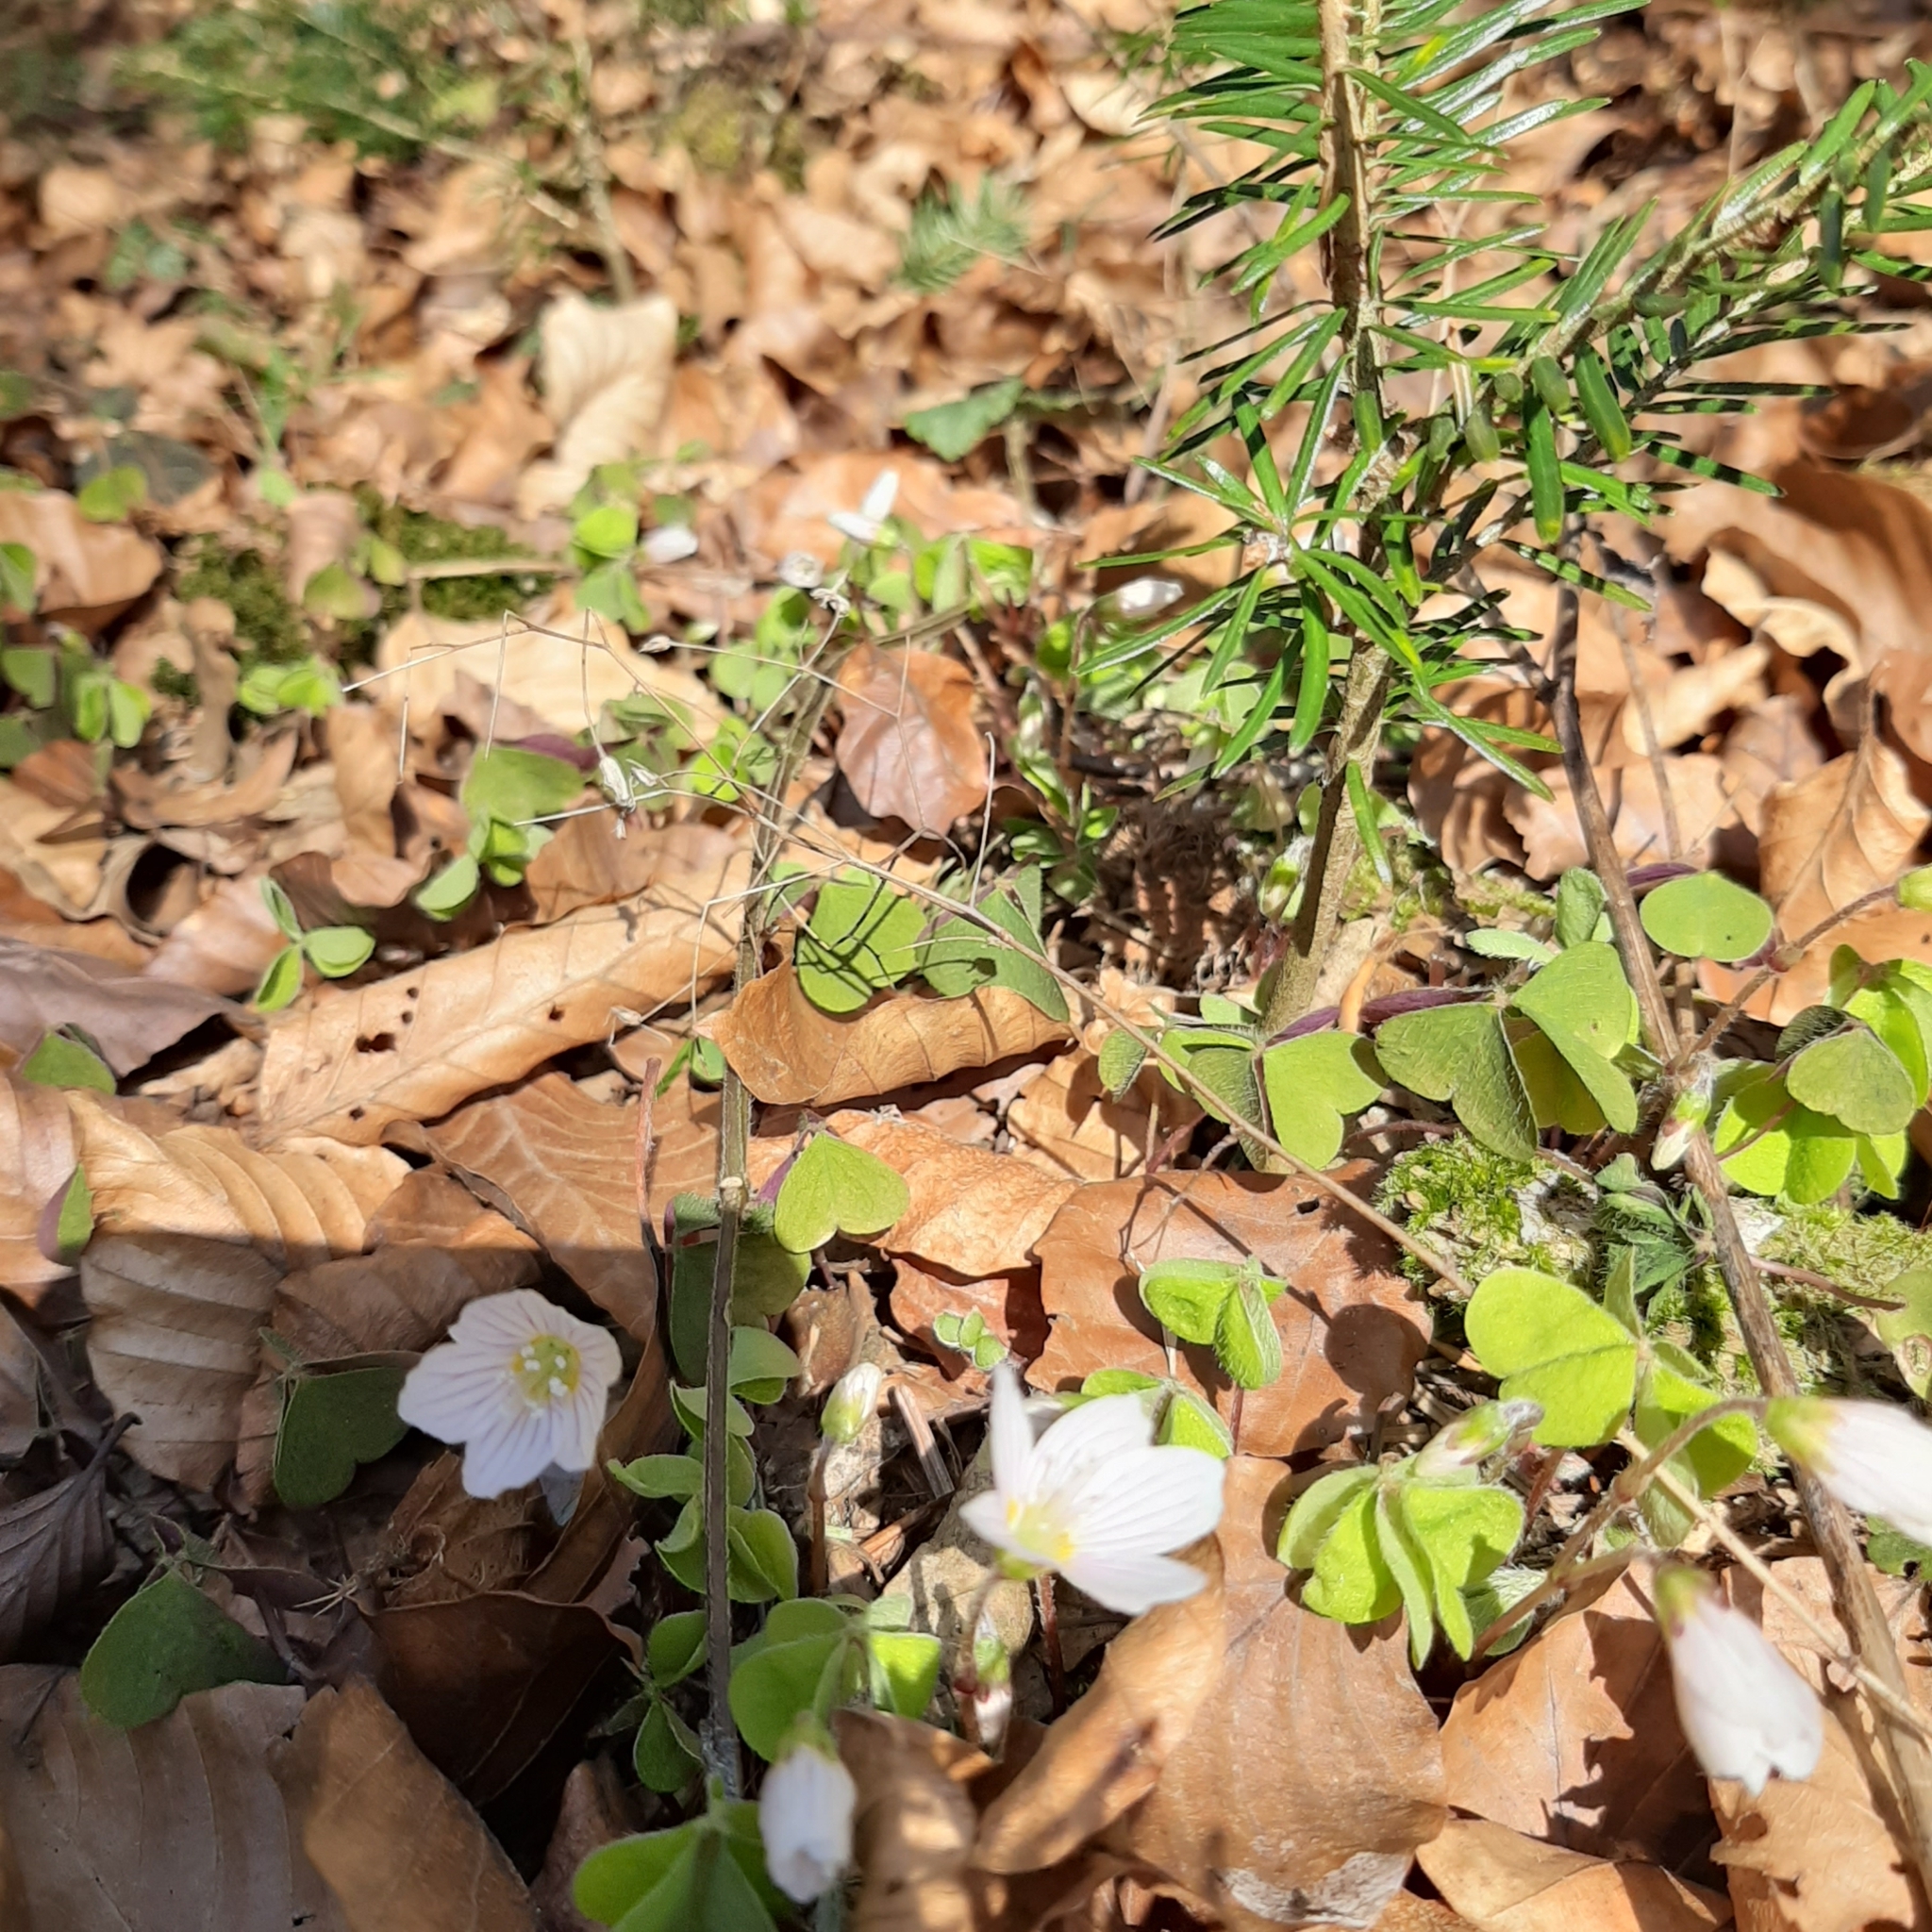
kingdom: Plantae
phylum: Tracheophyta
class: Magnoliopsida
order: Oxalidales
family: Oxalidaceae
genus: Oxalis
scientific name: Oxalis acetosella
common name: Wood-sorrel
